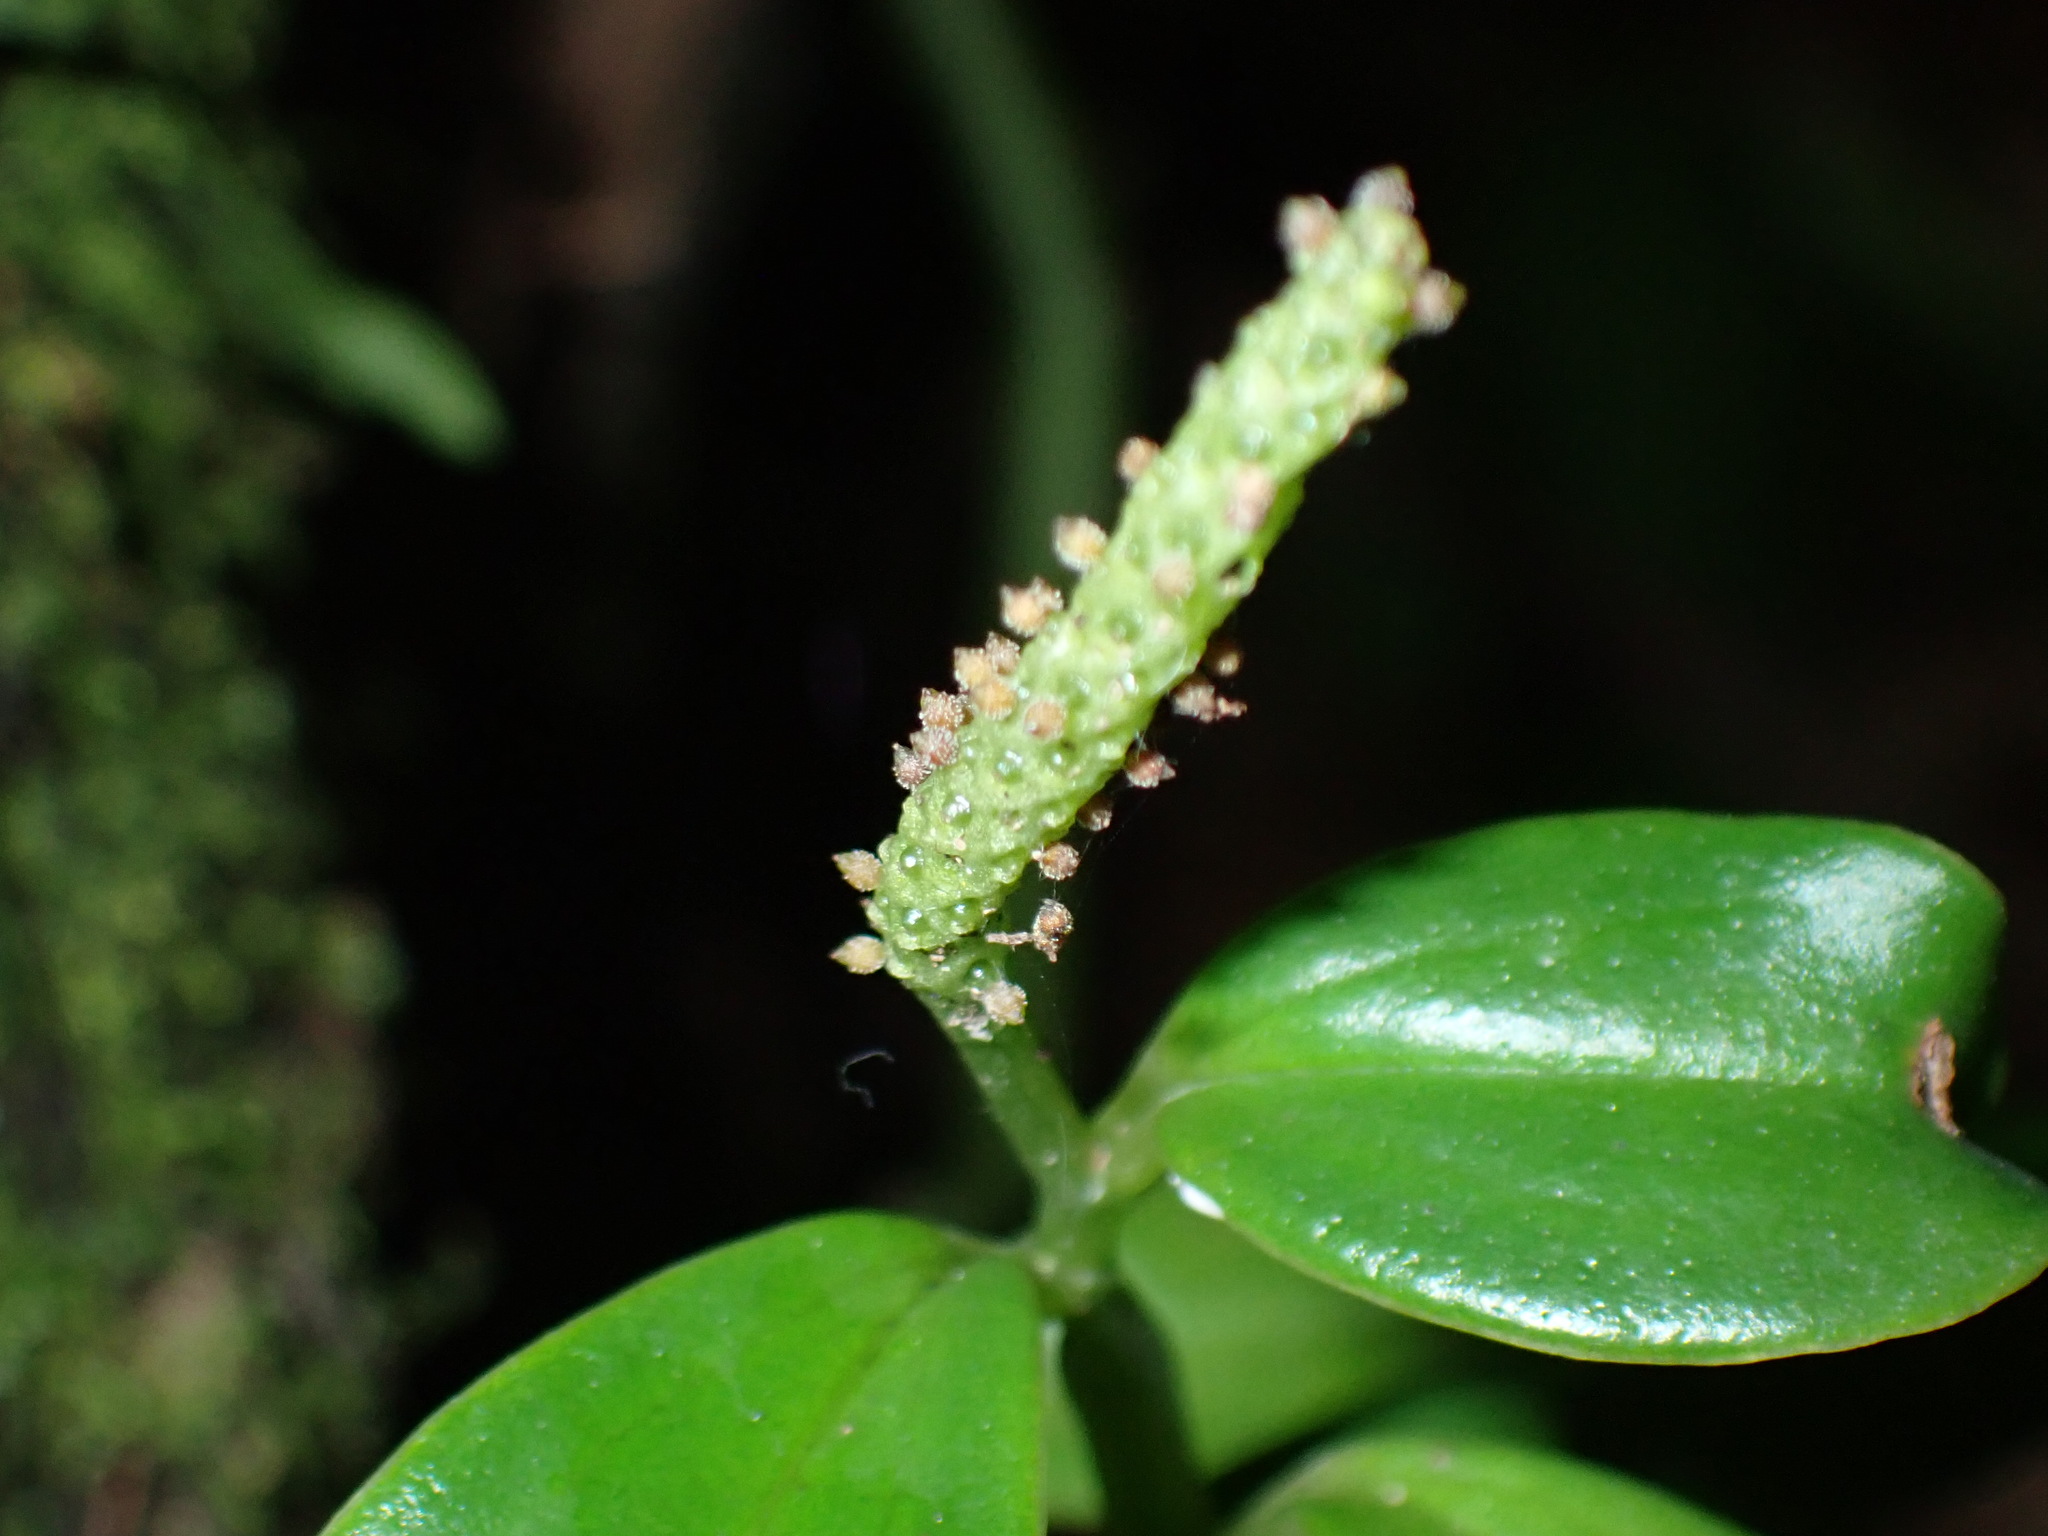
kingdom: Plantae
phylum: Tracheophyta
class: Magnoliopsida
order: Piperales
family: Piperaceae
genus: Peperomia
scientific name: Peperomia urvilleana
